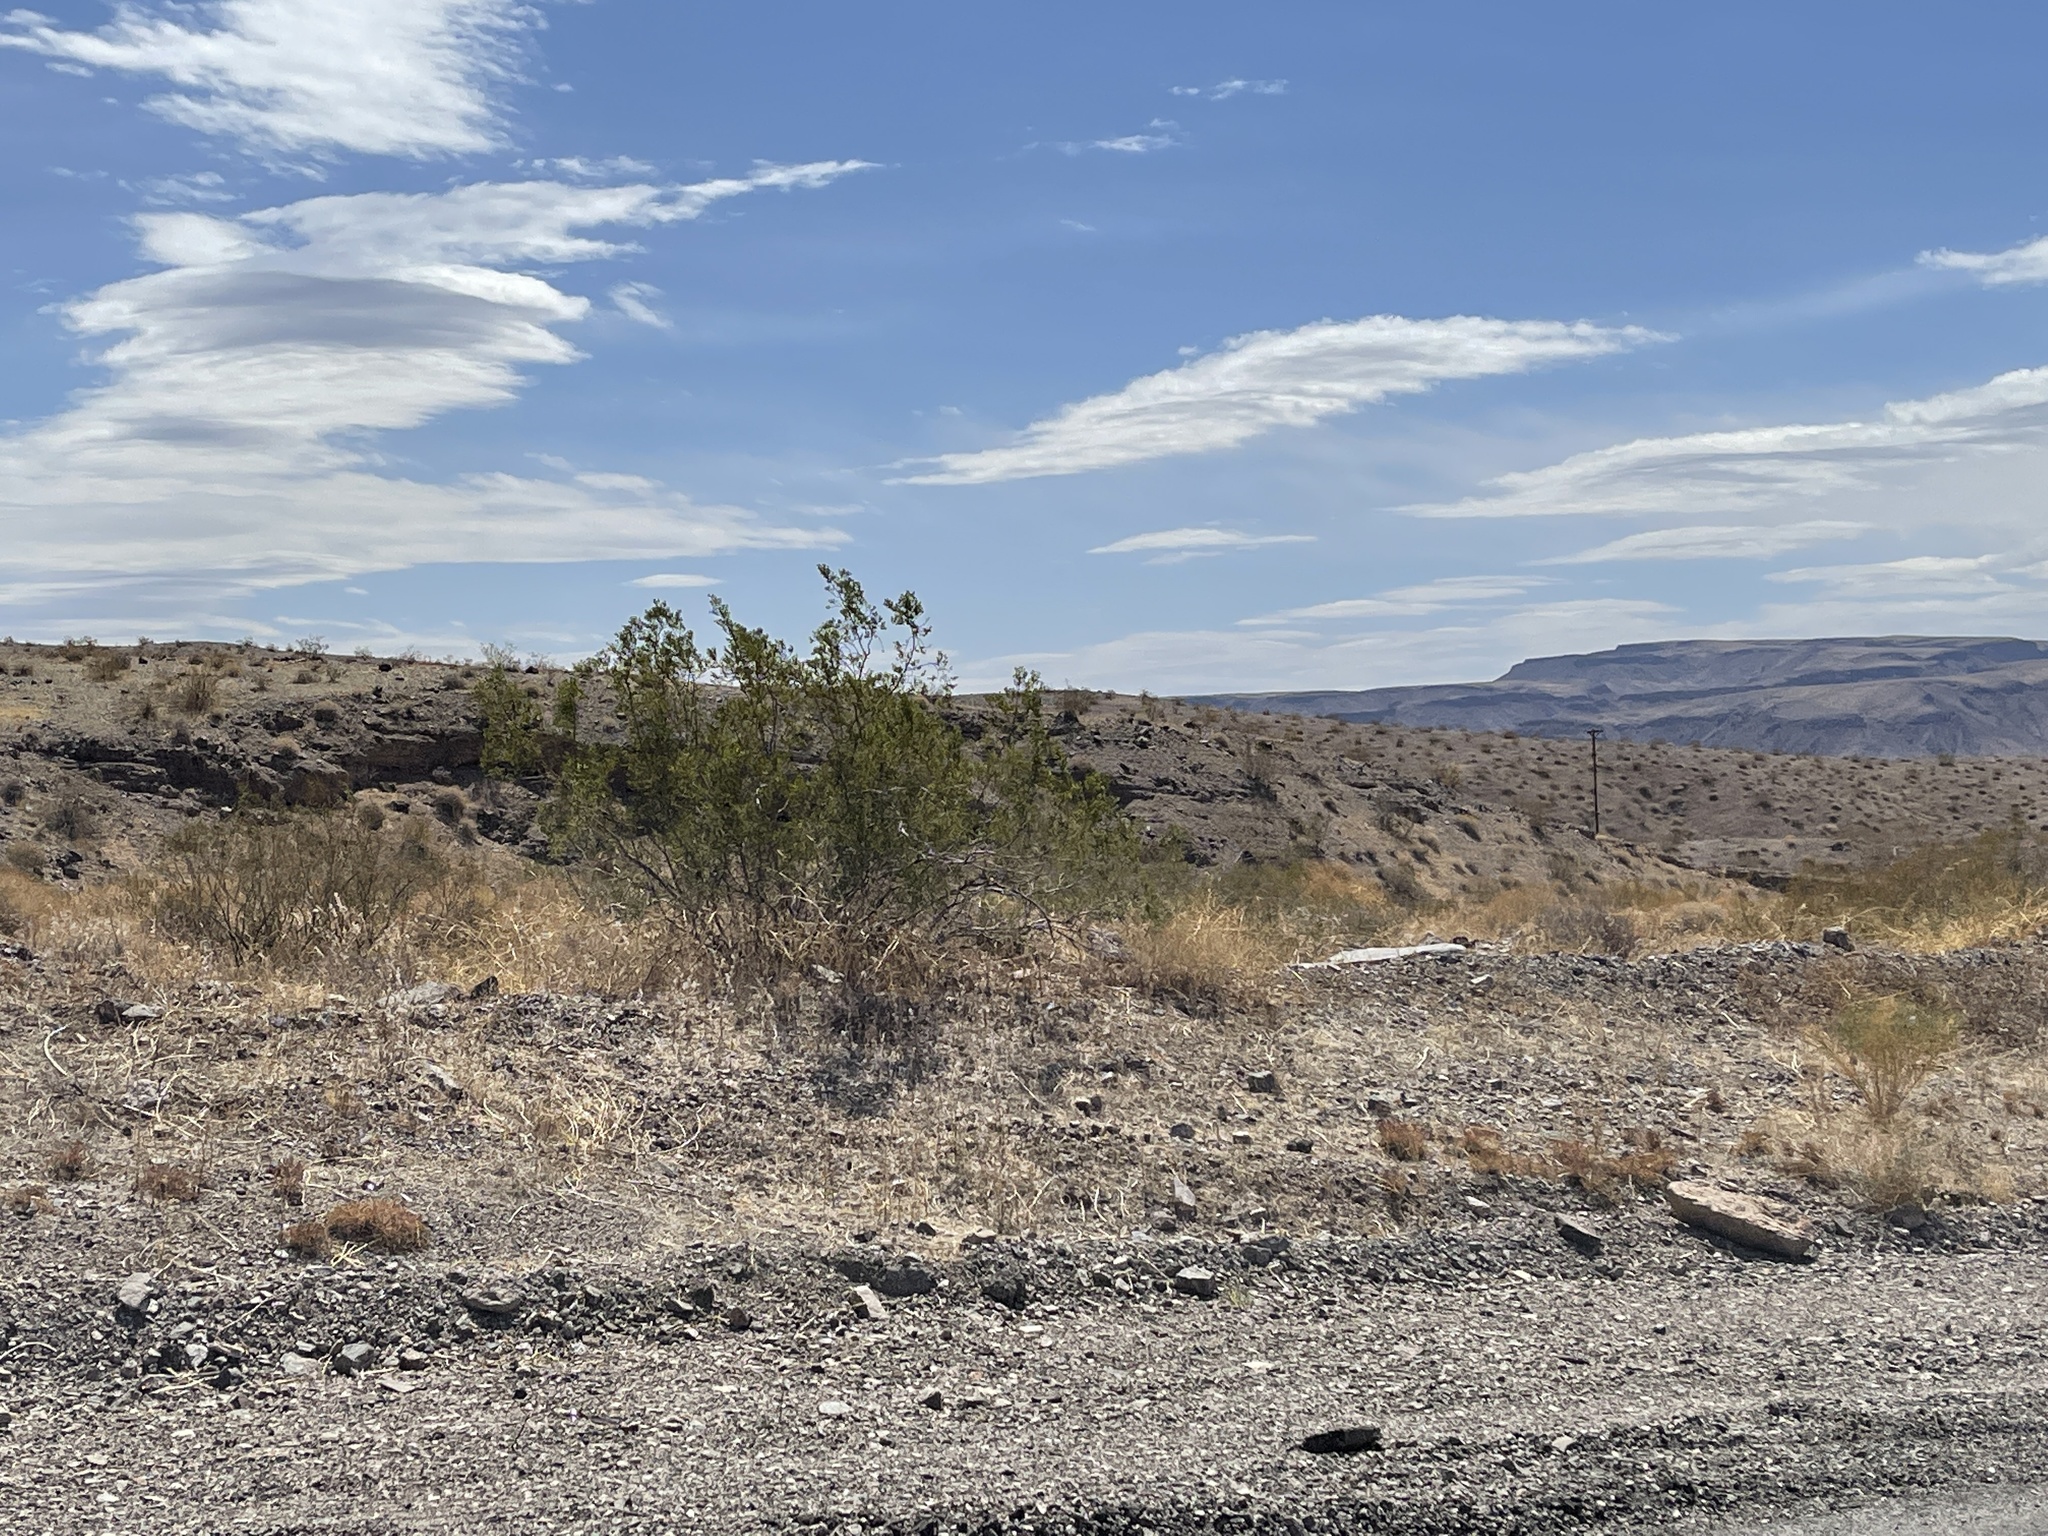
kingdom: Plantae
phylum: Tracheophyta
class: Magnoliopsida
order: Zygophyllales
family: Zygophyllaceae
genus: Larrea
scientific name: Larrea tridentata
